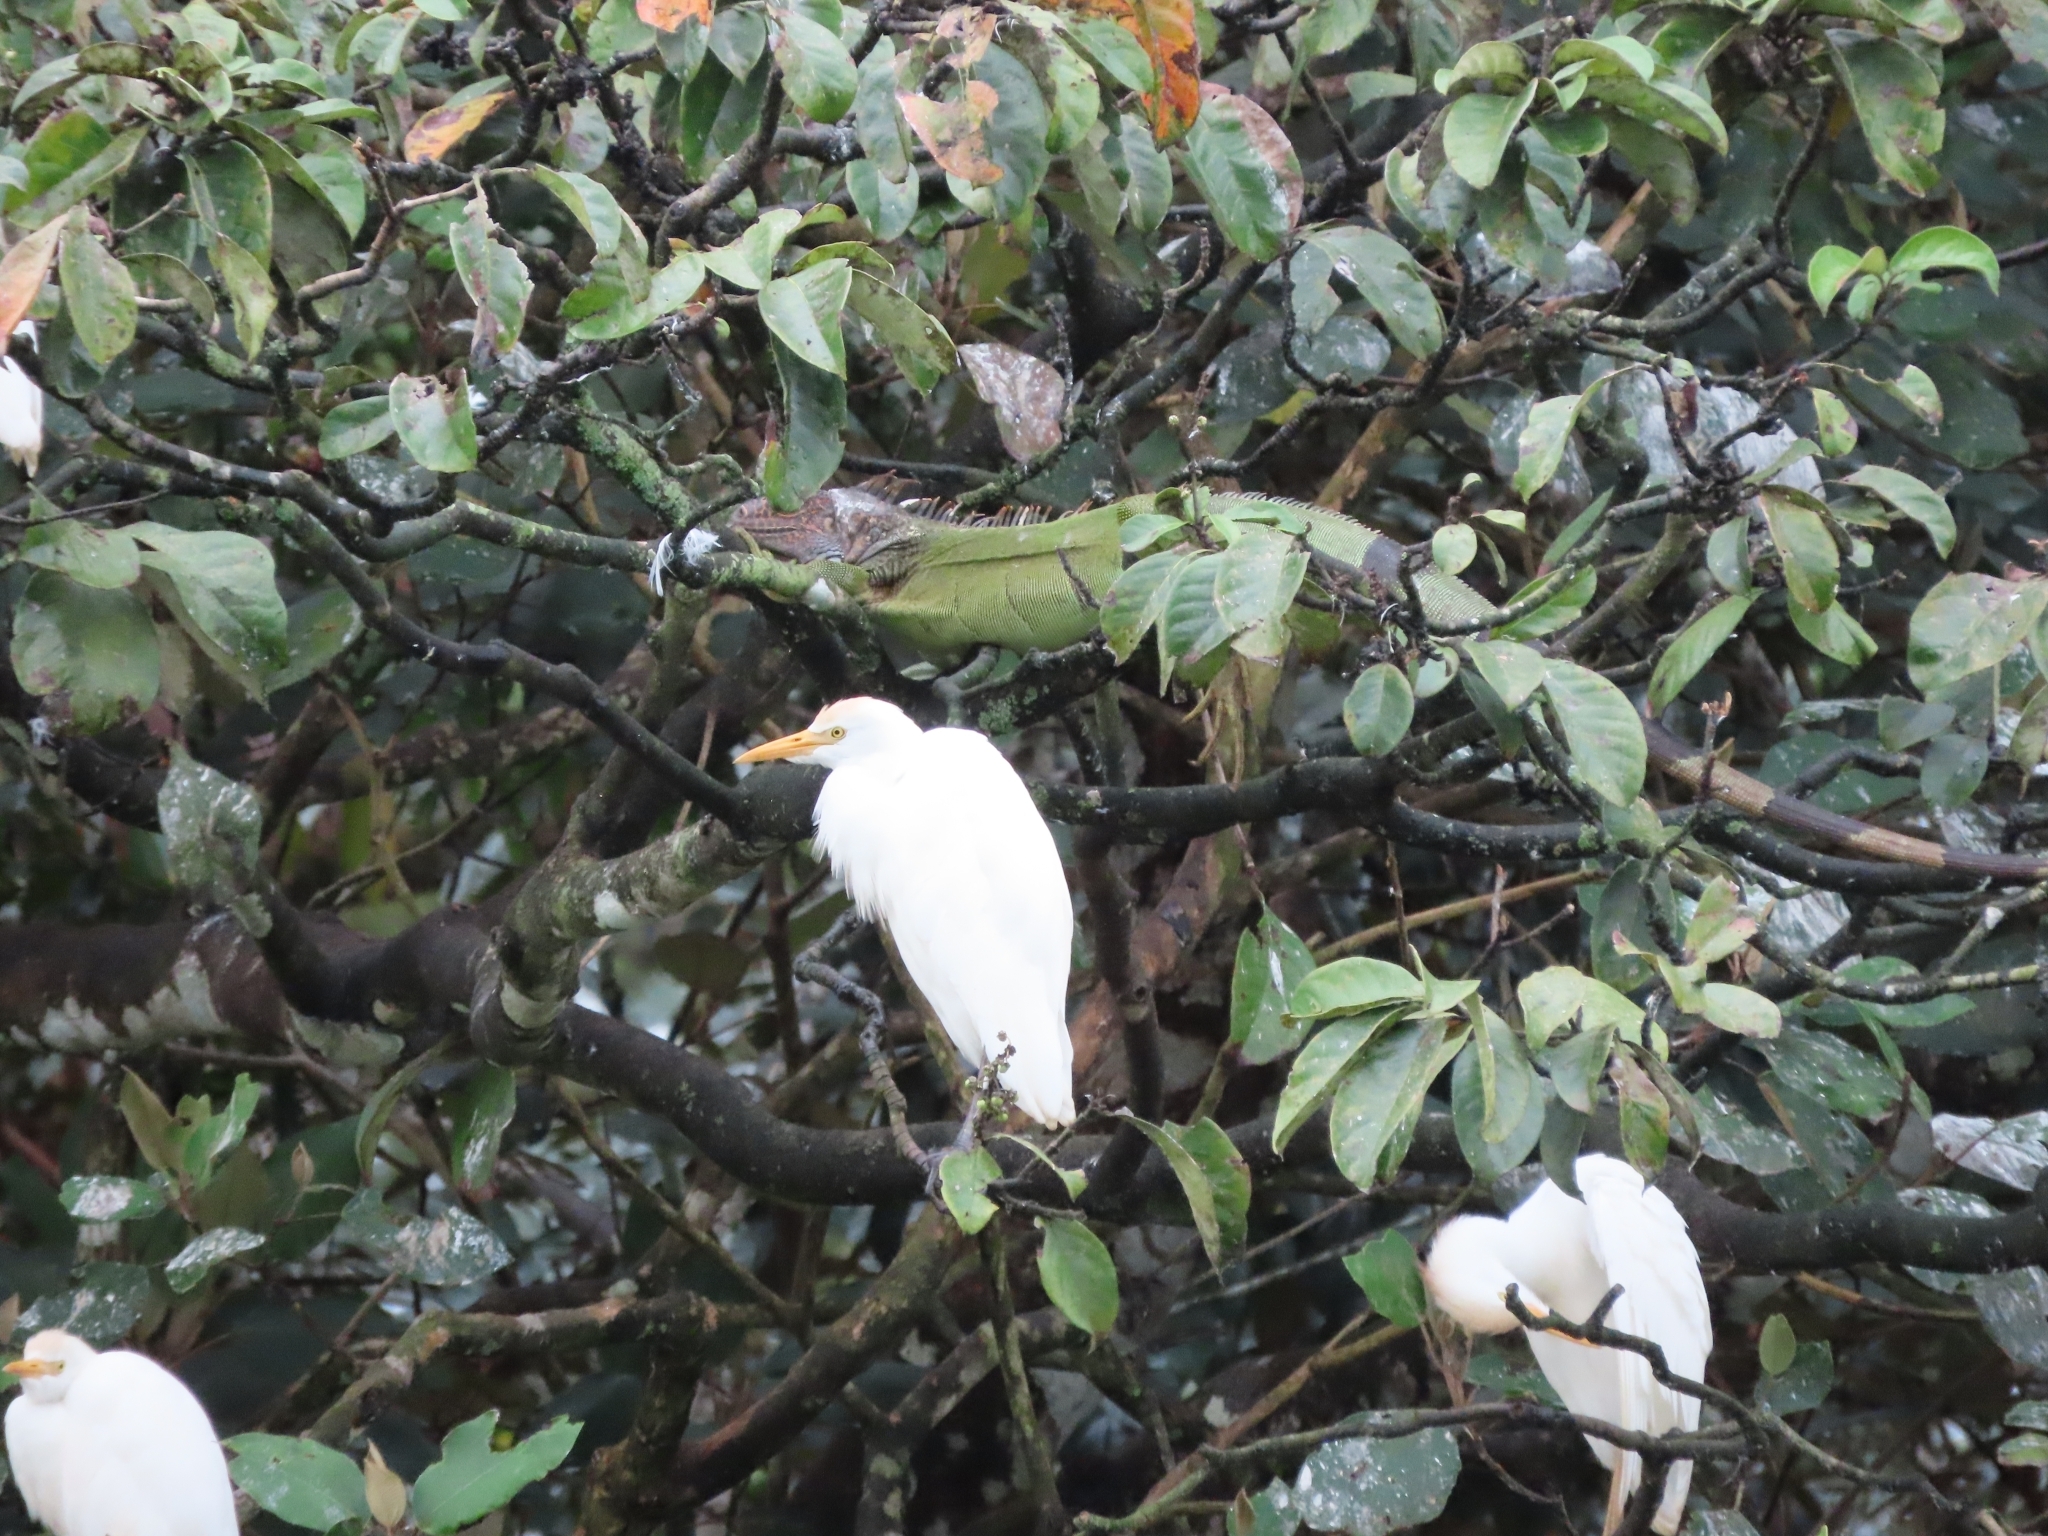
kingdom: Animalia
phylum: Chordata
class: Aves
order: Pelecaniformes
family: Ardeidae
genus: Bubulcus
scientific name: Bubulcus ibis
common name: Cattle egret
